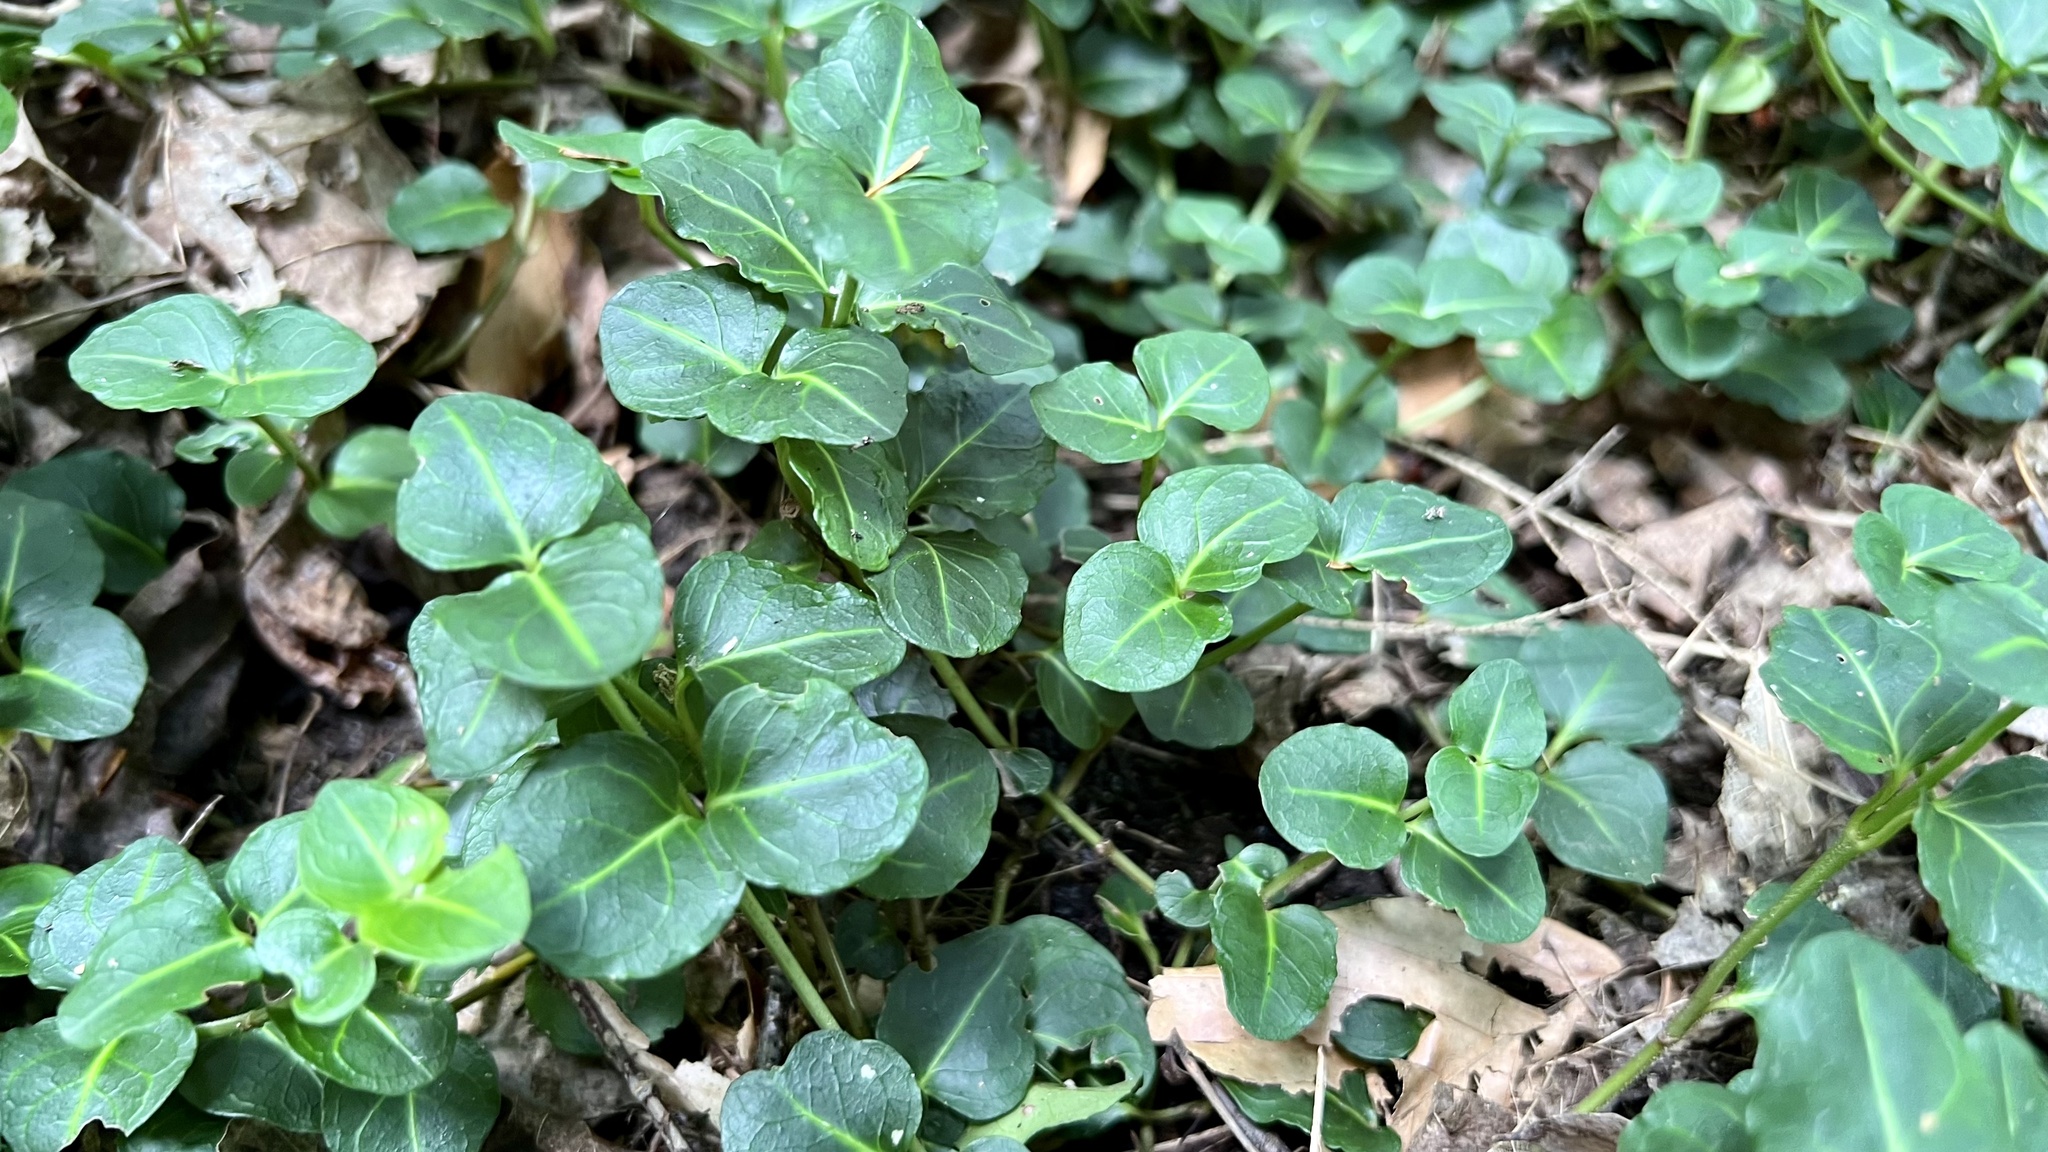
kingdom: Plantae
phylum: Tracheophyta
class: Magnoliopsida
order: Gentianales
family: Rubiaceae
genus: Mitchella
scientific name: Mitchella repens
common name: Partridge-berry
